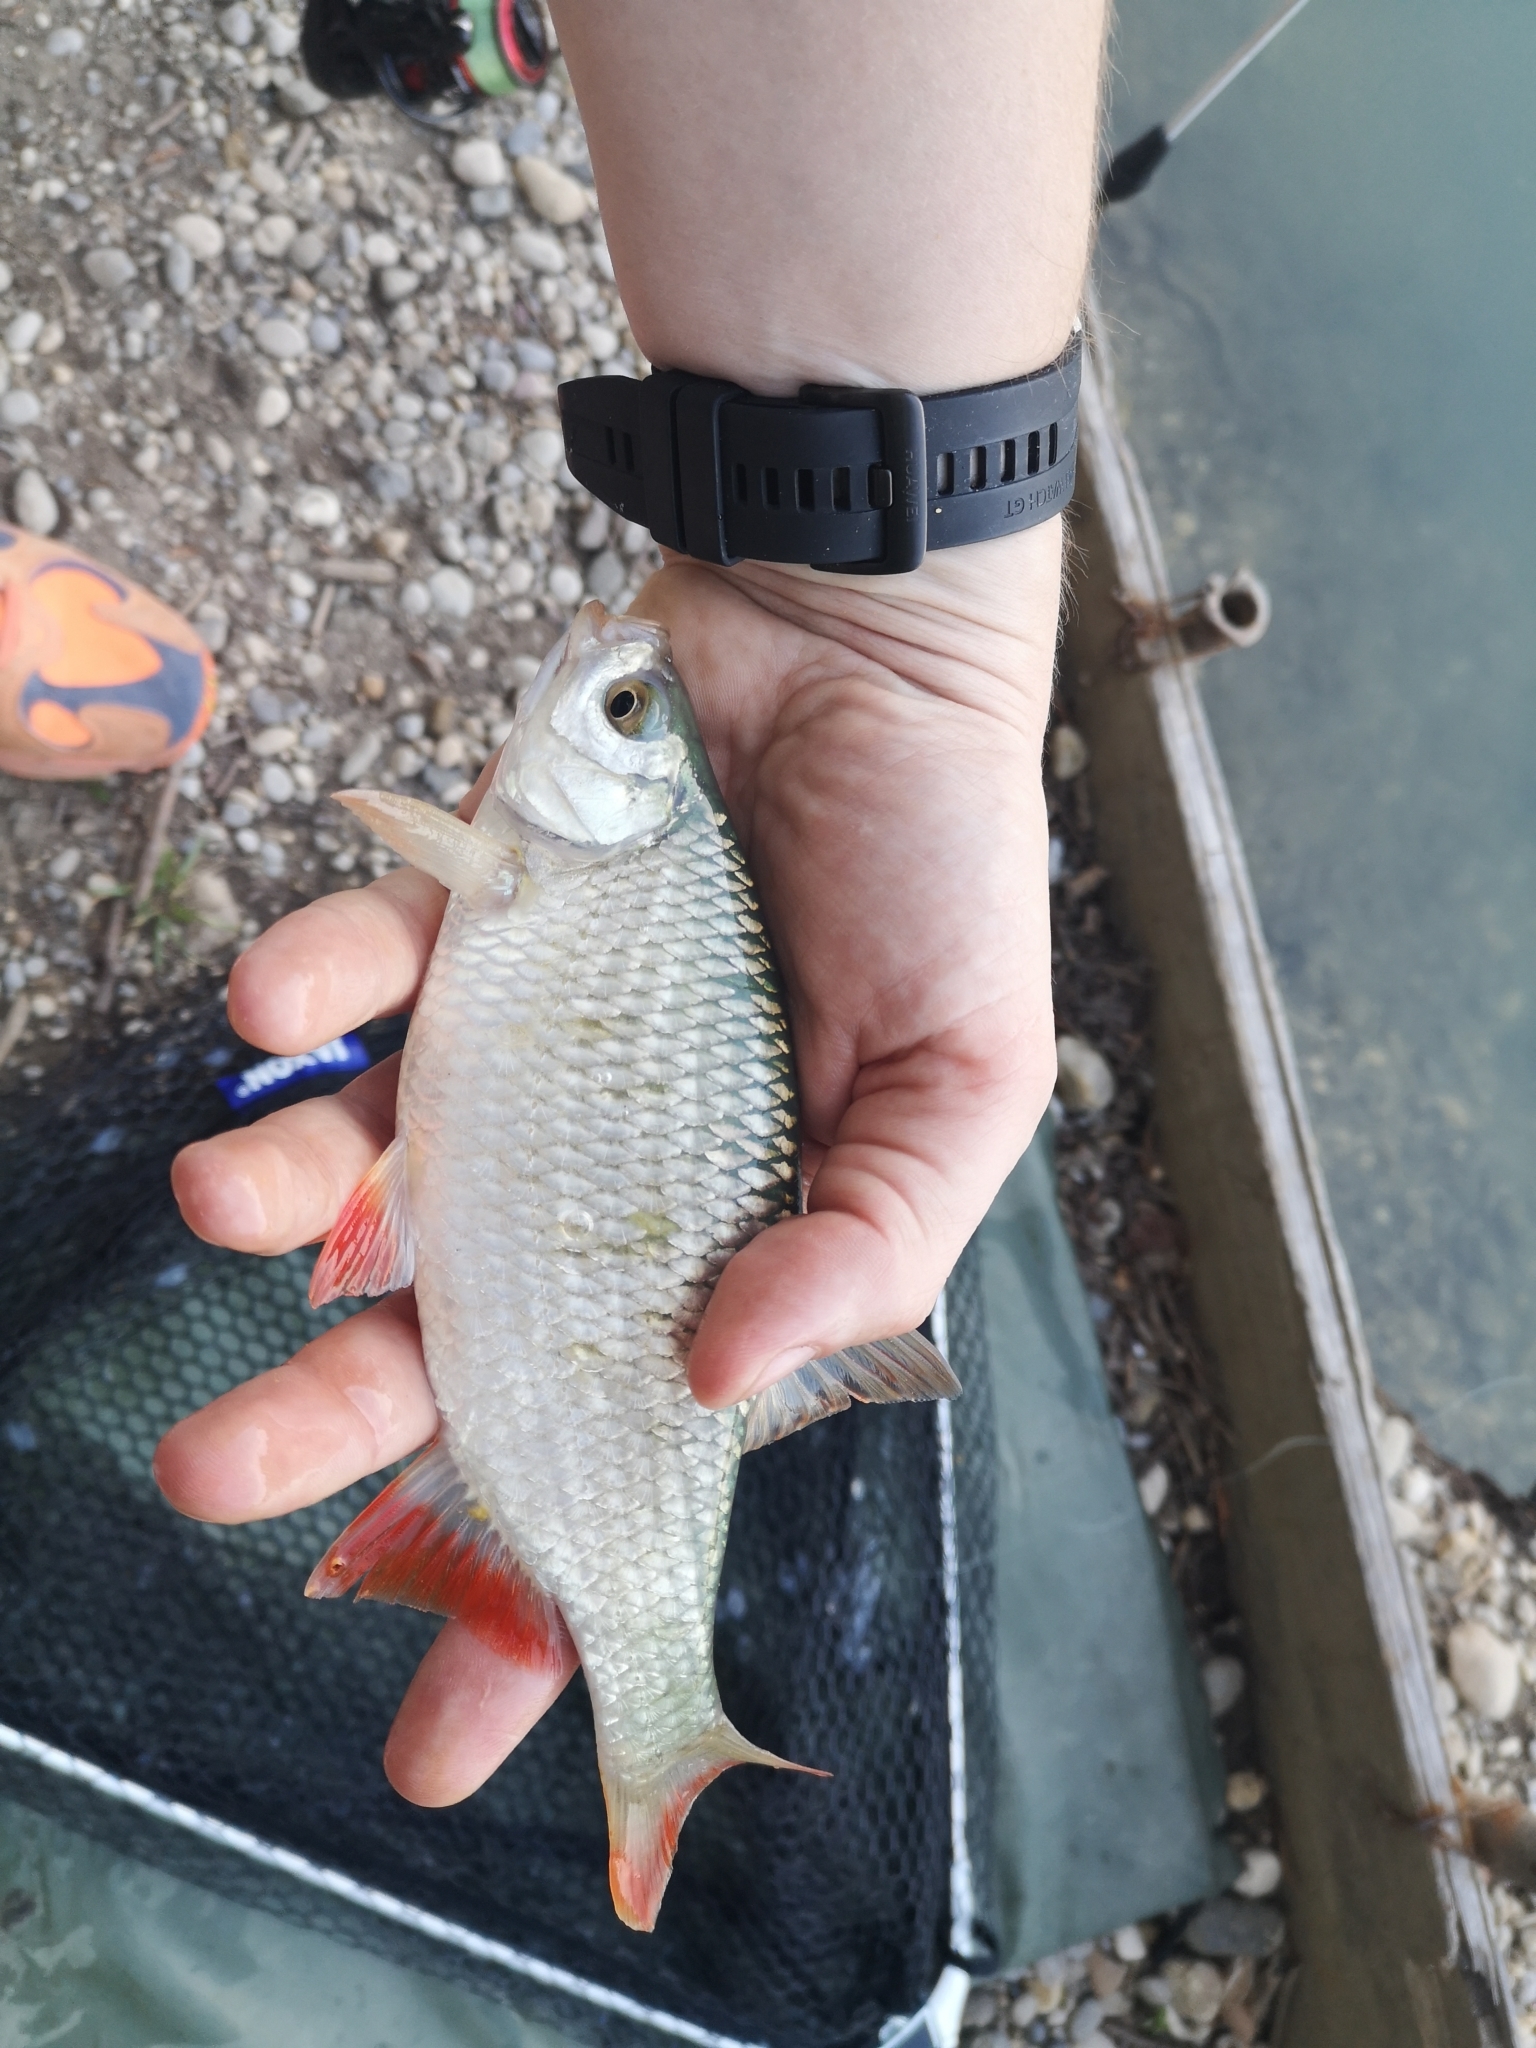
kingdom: Animalia
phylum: Chordata
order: Cypriniformes
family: Cyprinidae
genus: Scardinius
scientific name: Scardinius erythrophthalmus
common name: Rudd
